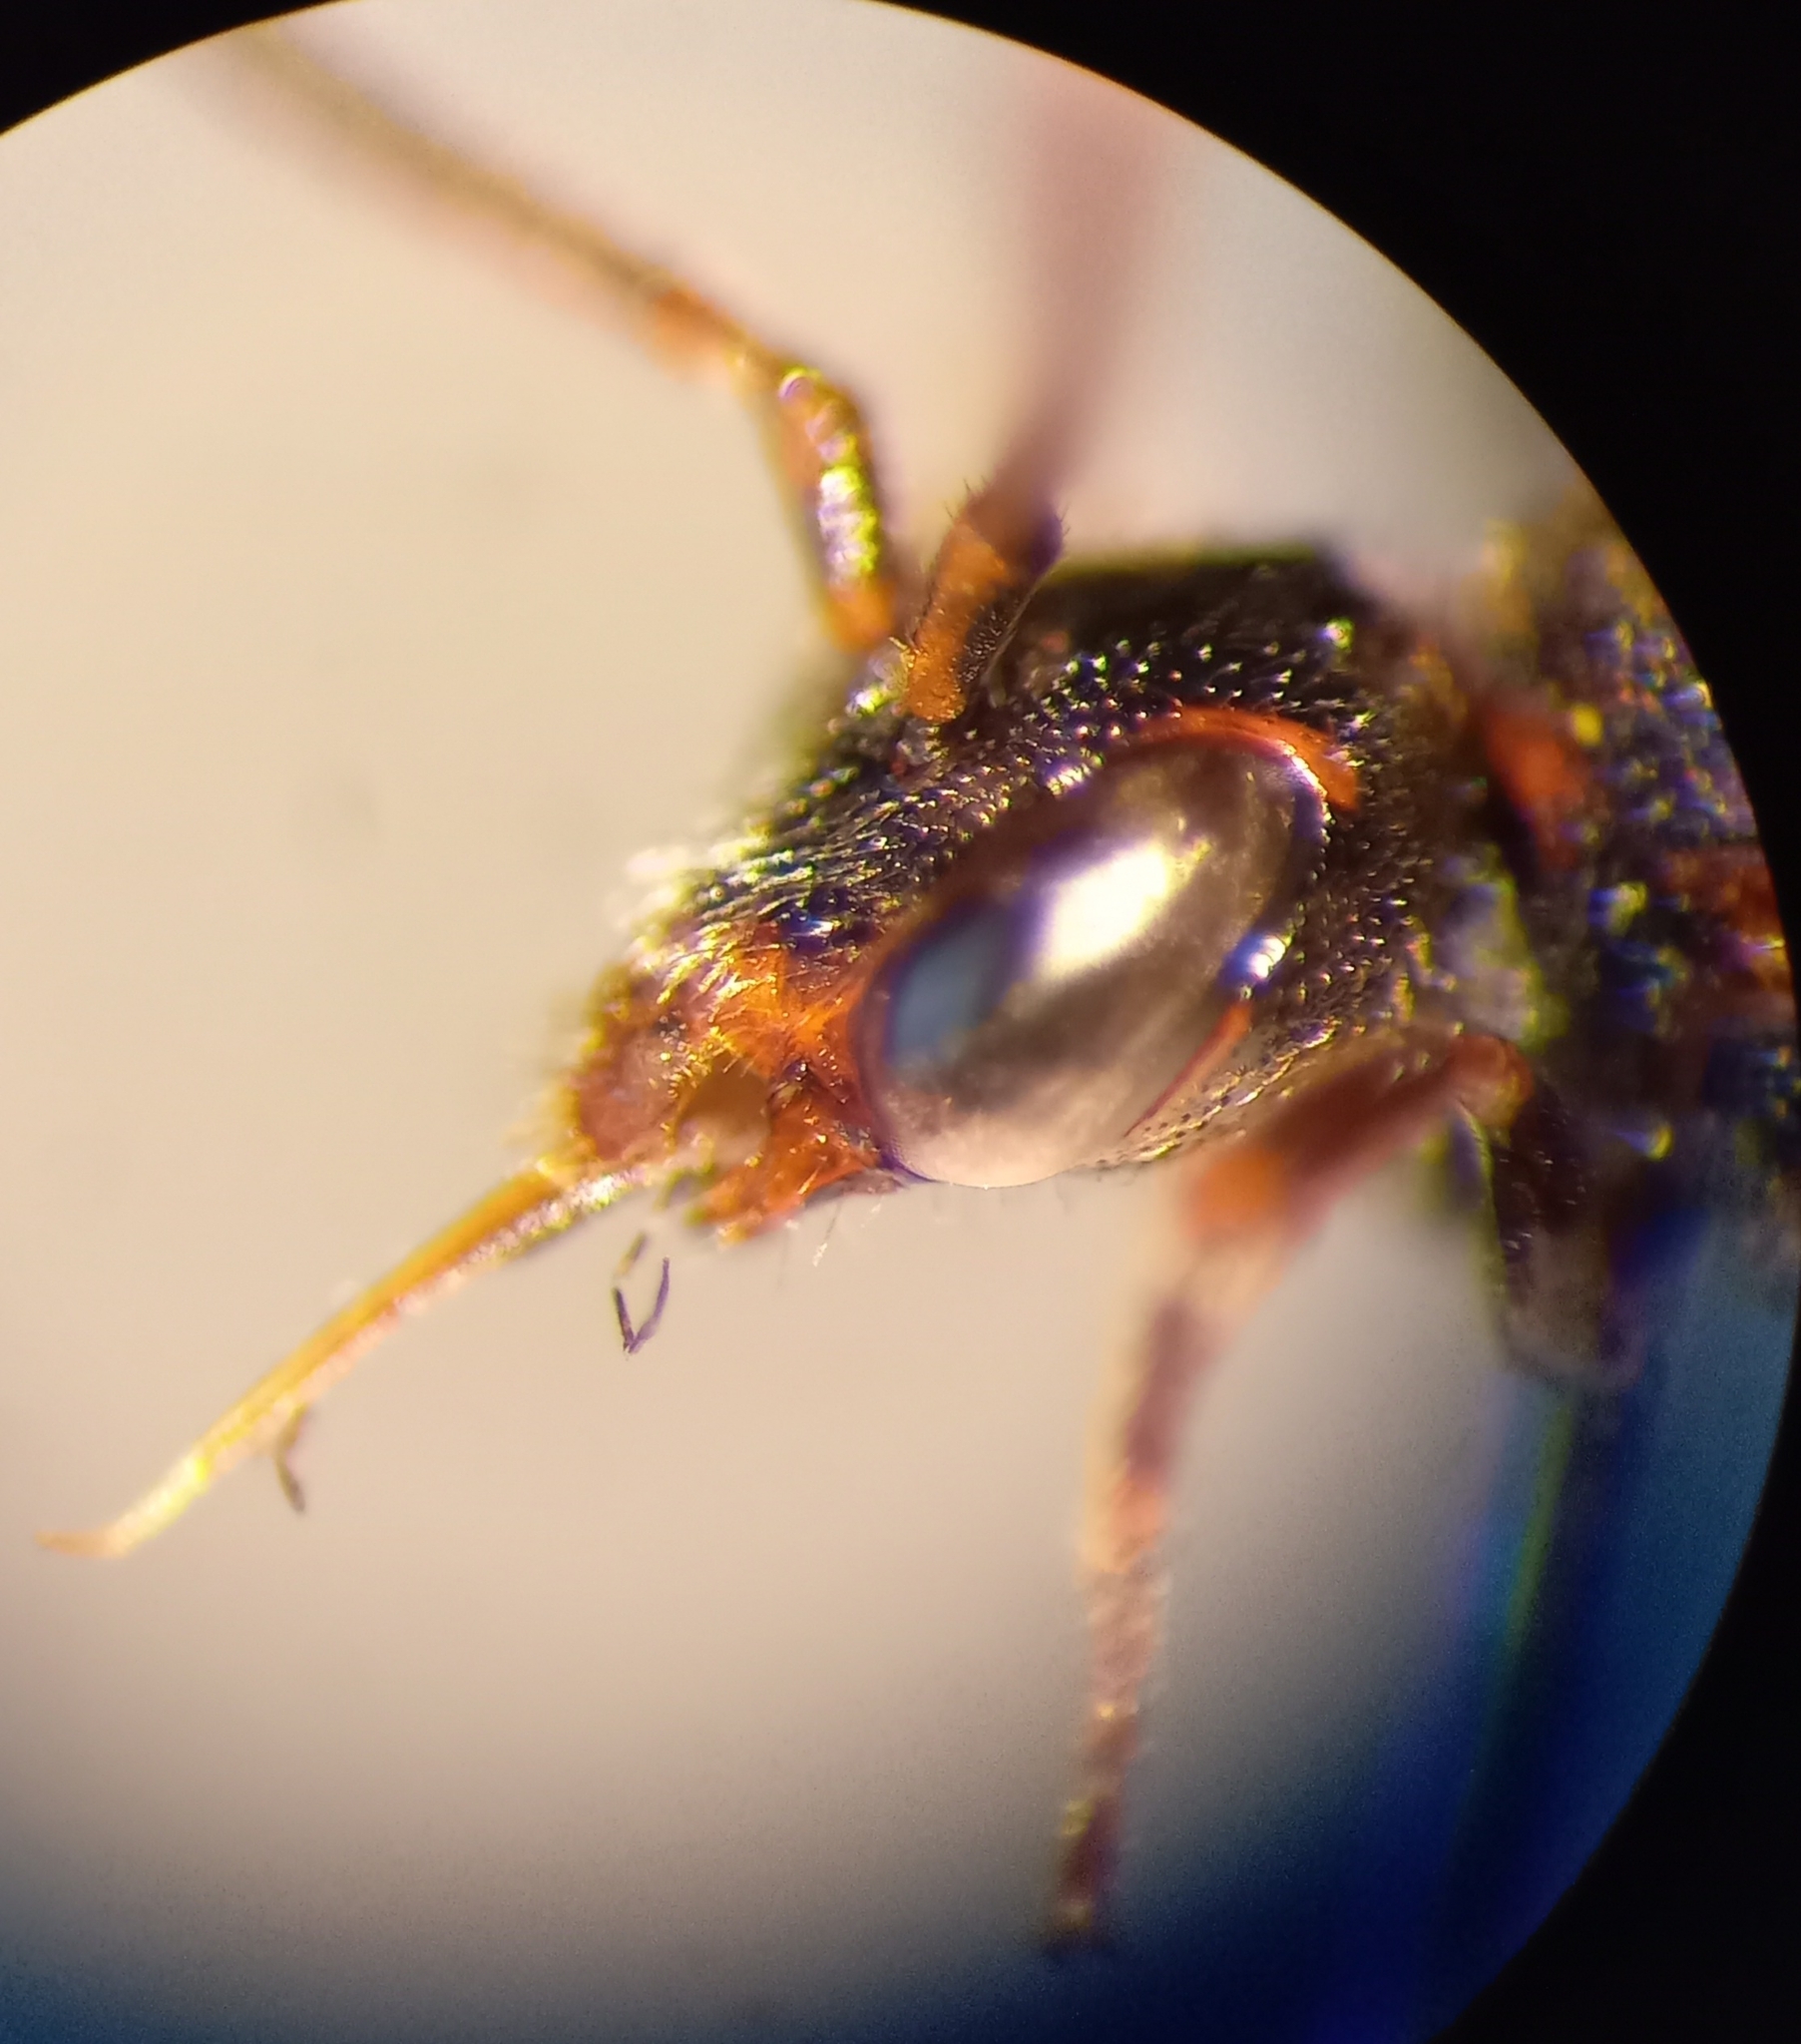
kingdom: Animalia
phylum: Arthropoda
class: Insecta
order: Hymenoptera
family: Apidae
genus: Nomada
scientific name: Nomada sheppardana
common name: Dark nomad bee
